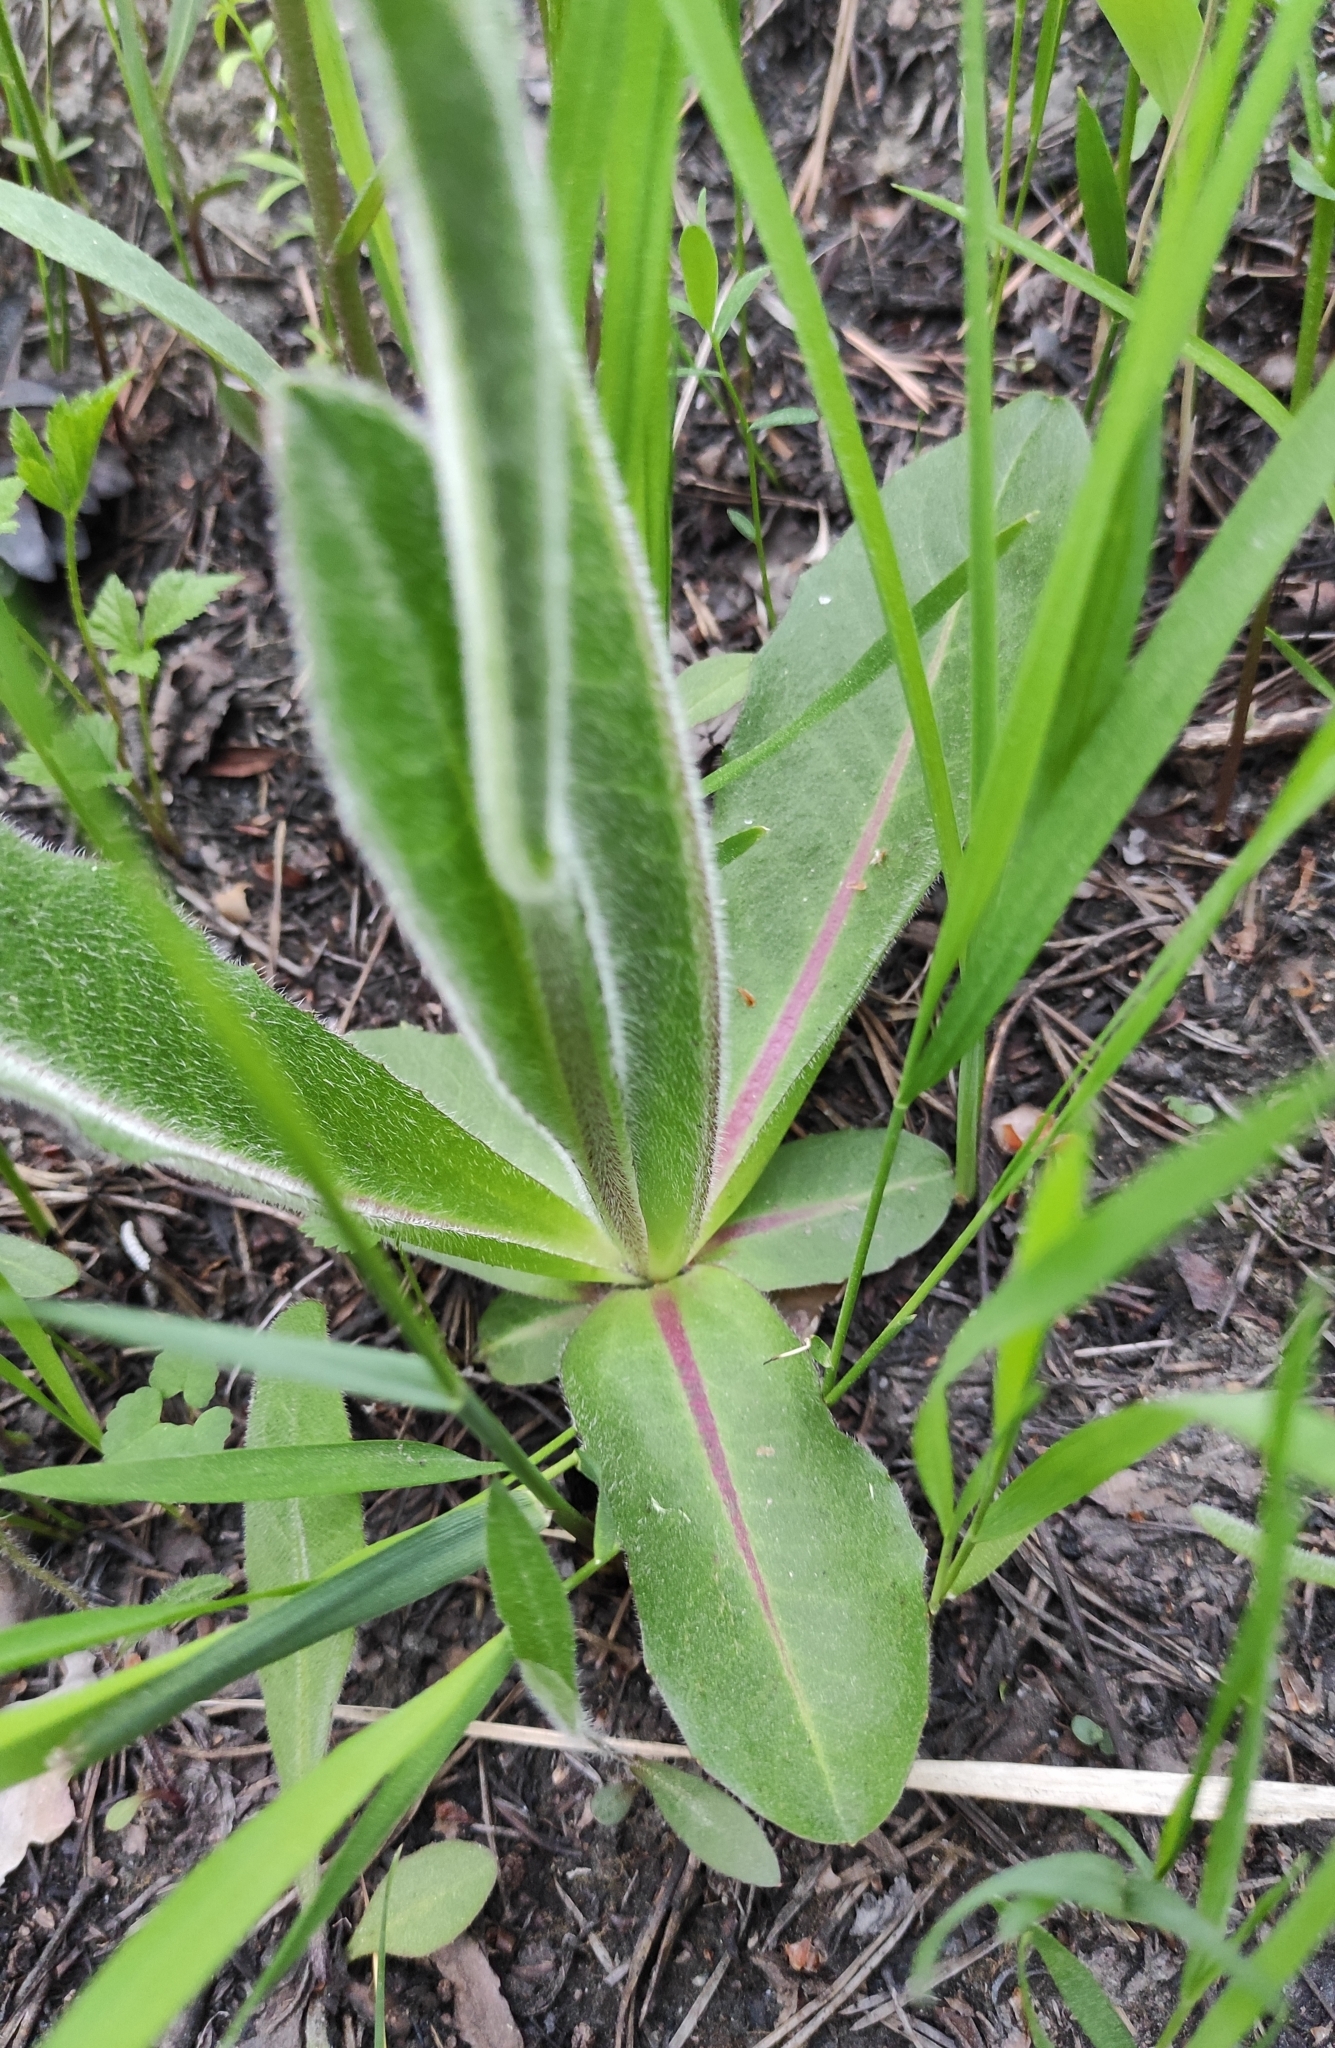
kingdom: Plantae
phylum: Tracheophyta
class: Magnoliopsida
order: Asterales
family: Asteraceae
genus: Trommsdorffia
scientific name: Trommsdorffia maculata
